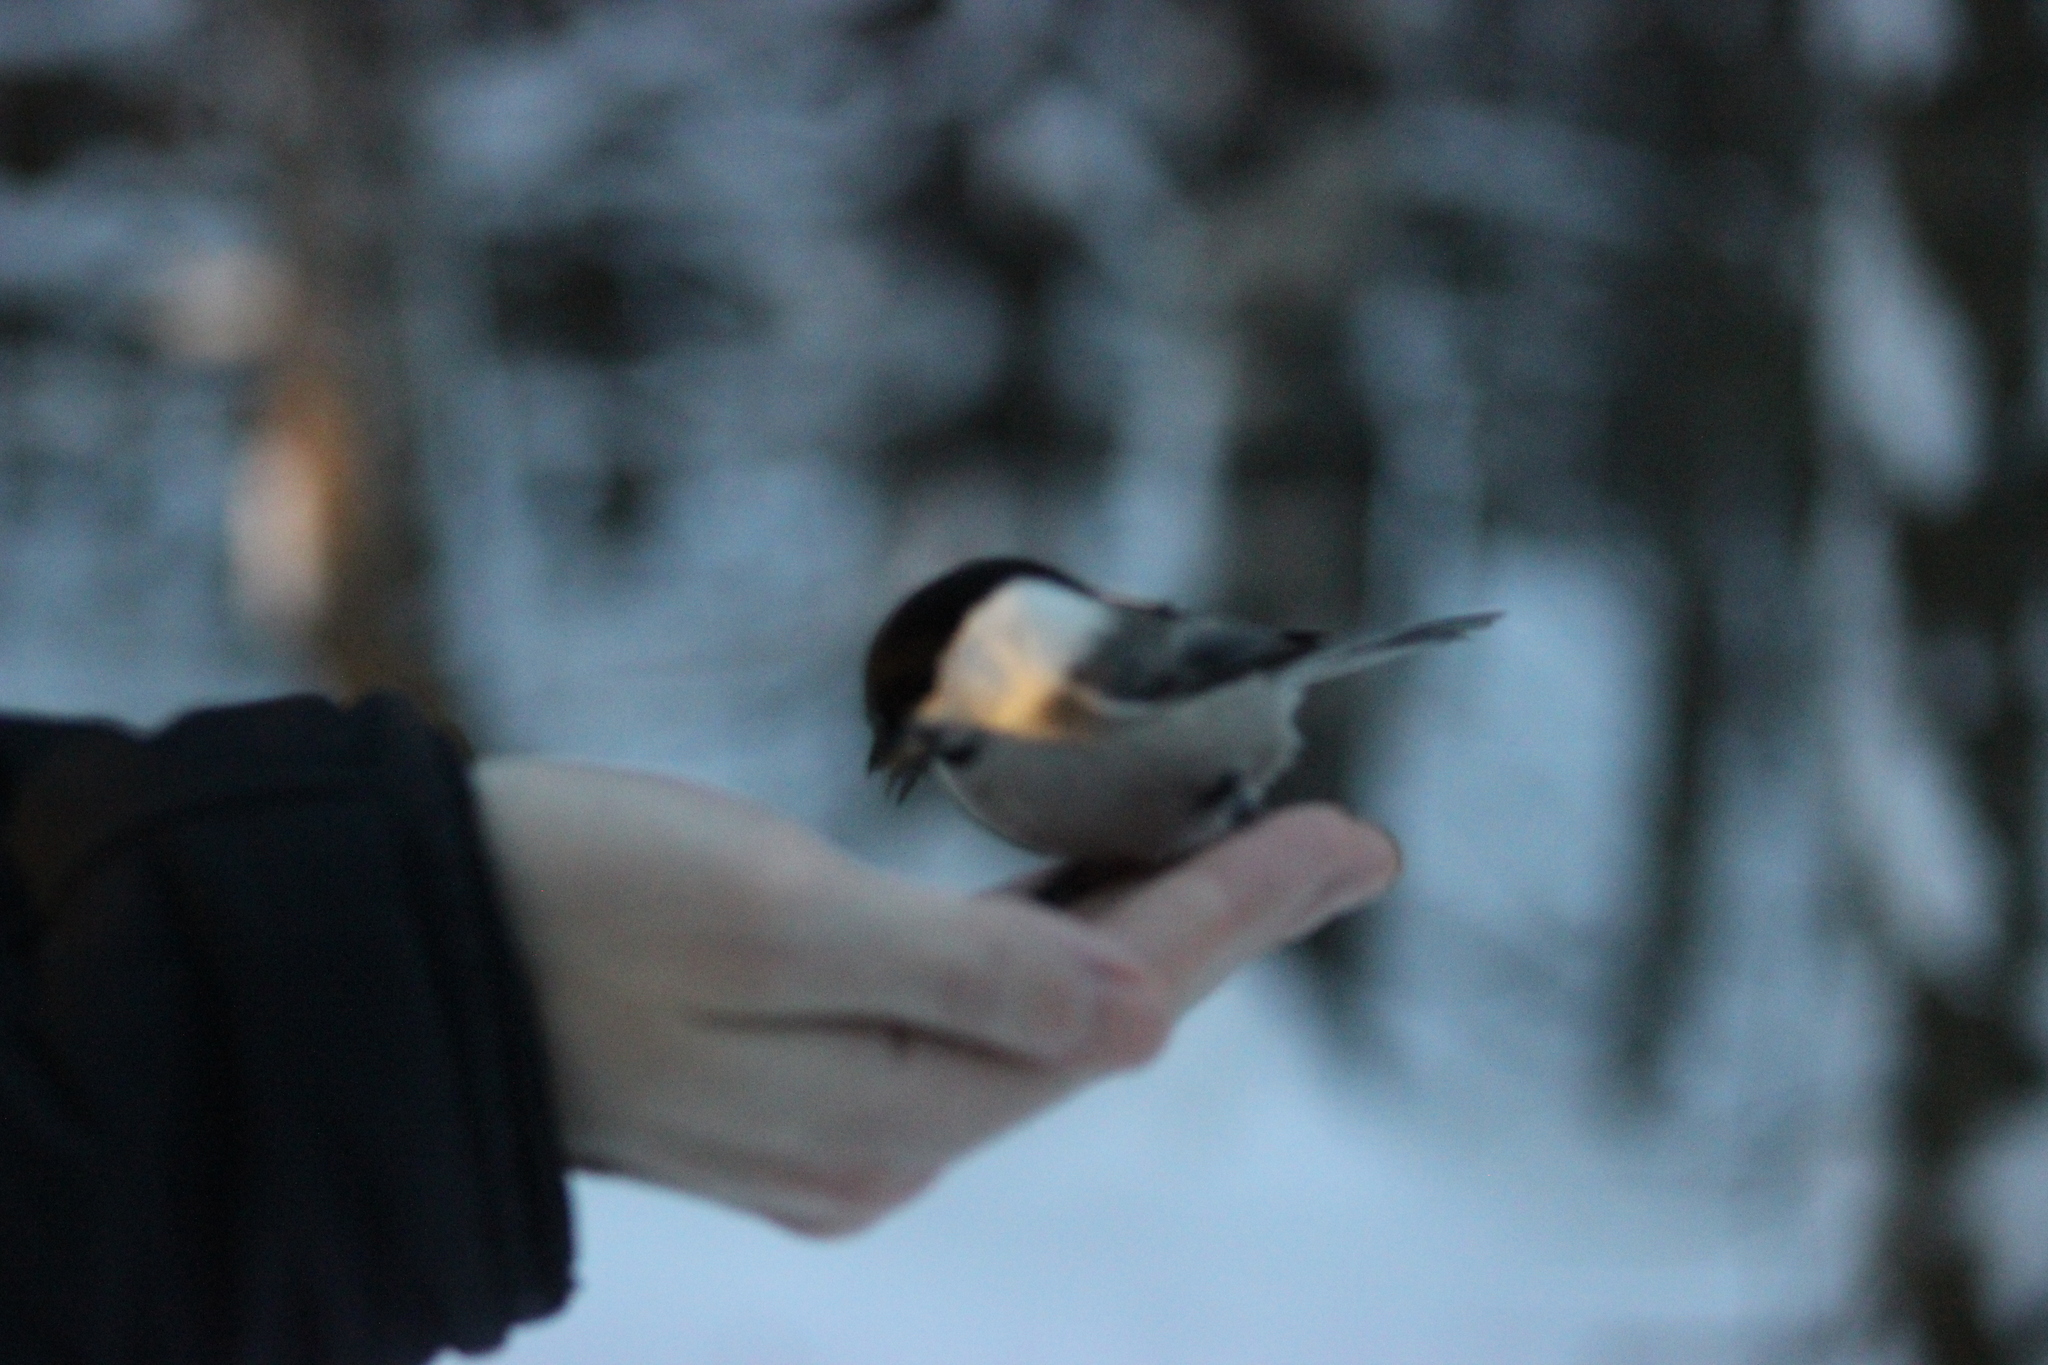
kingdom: Animalia
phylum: Chordata
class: Aves
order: Passeriformes
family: Paridae
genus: Poecile
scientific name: Poecile montanus
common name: Willow tit
